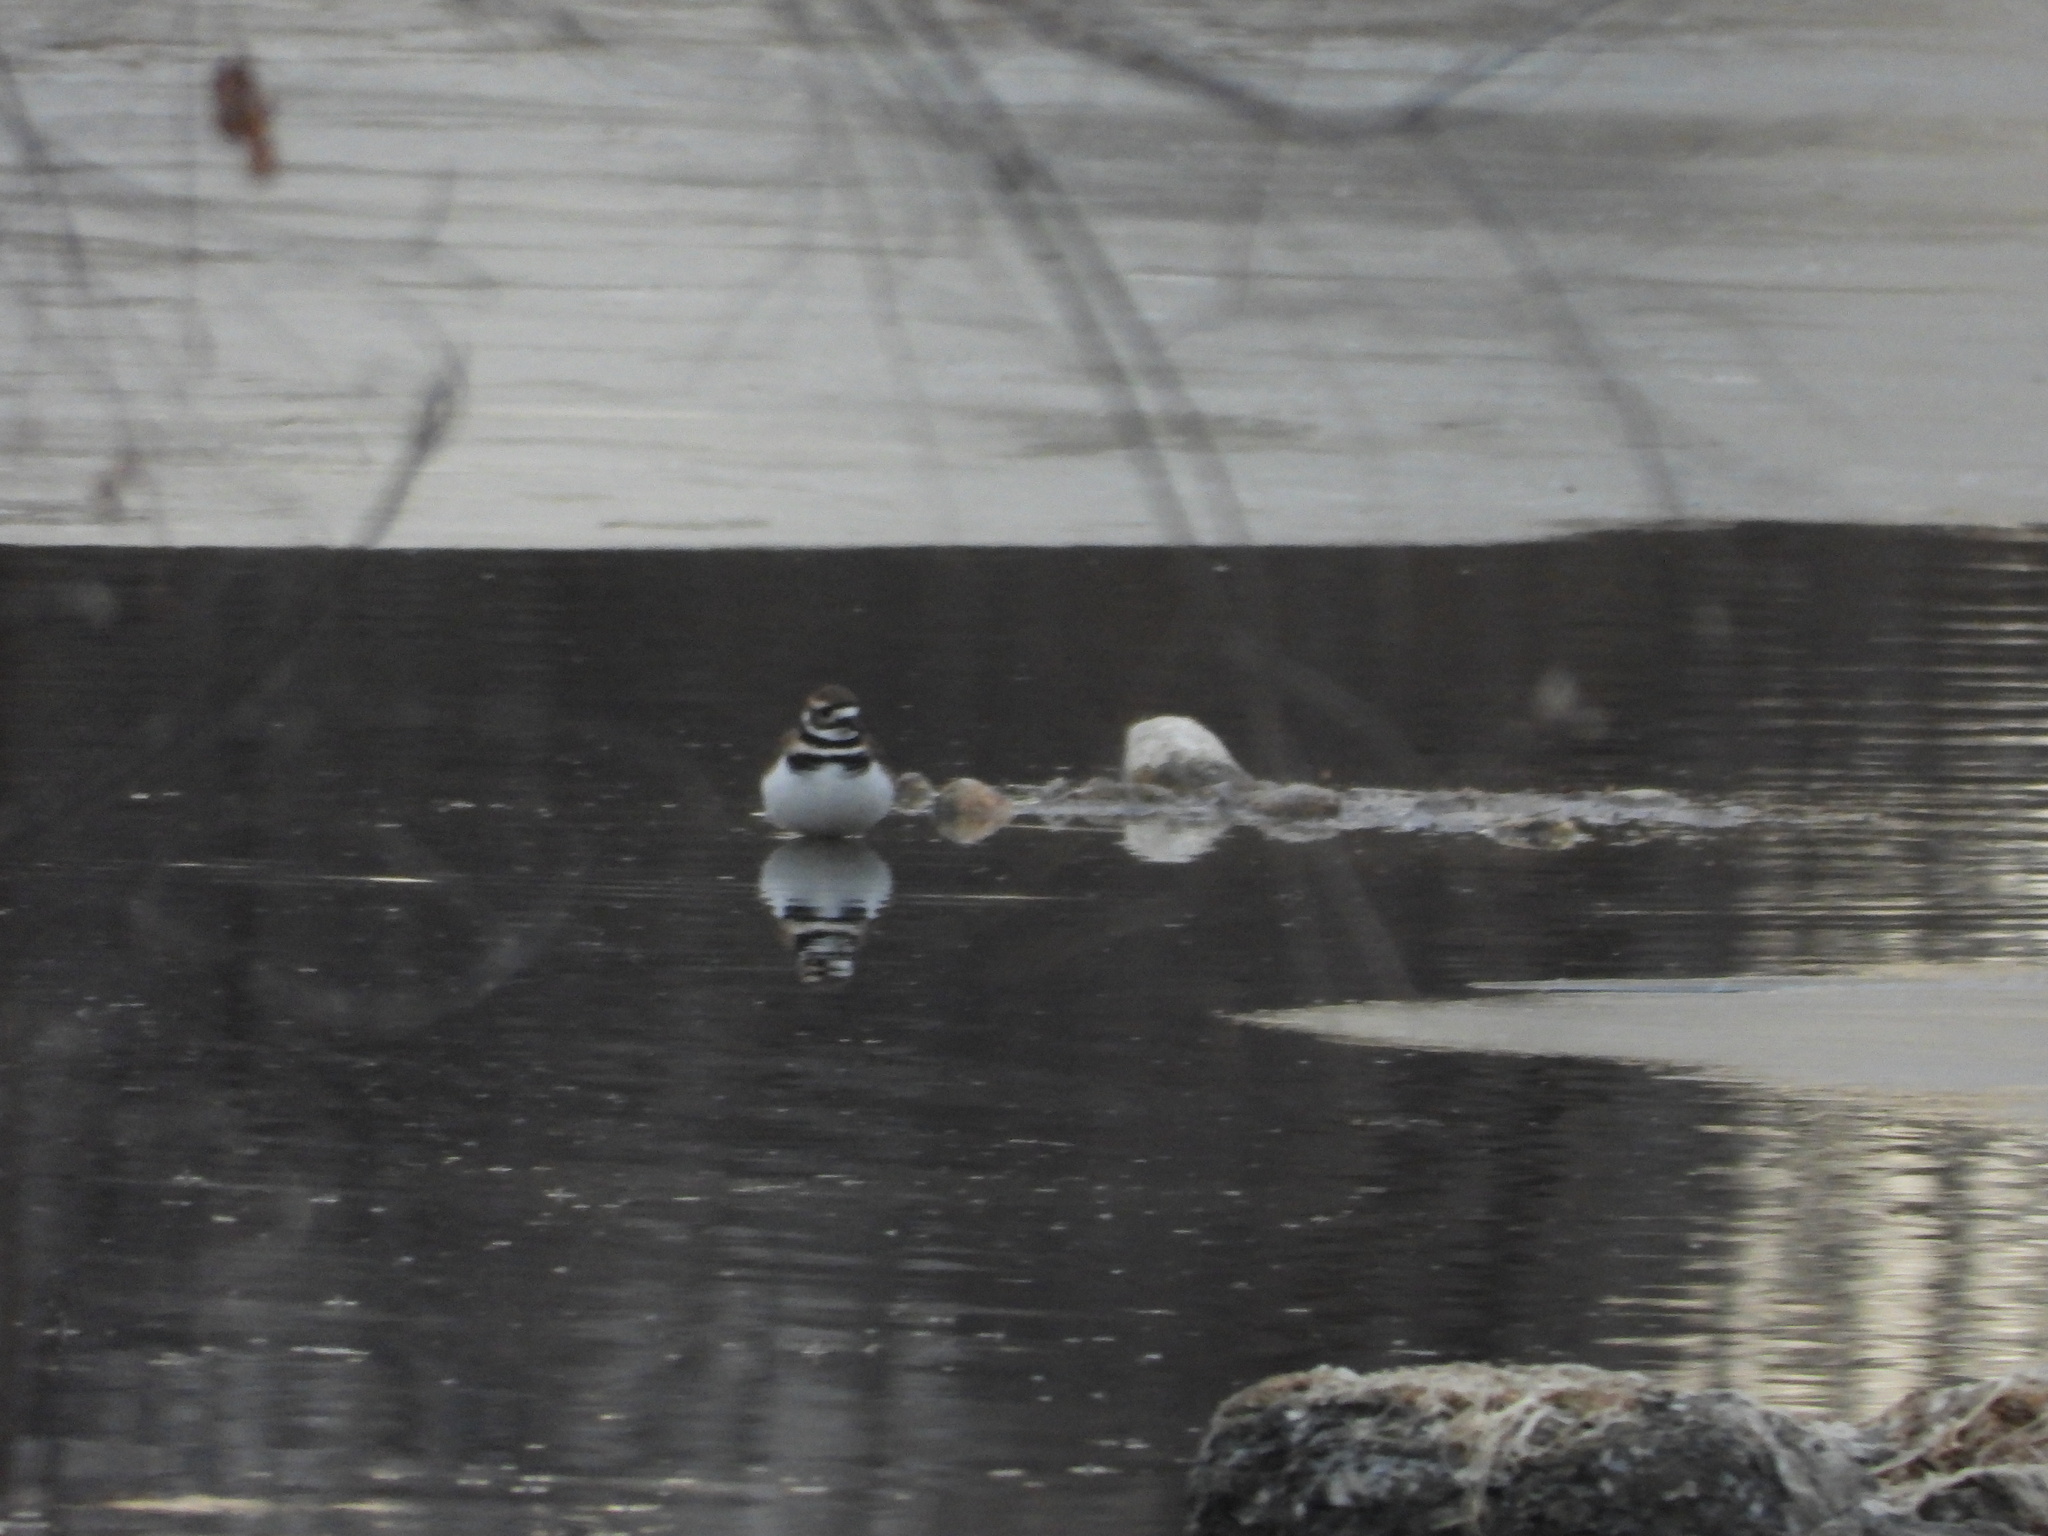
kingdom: Animalia
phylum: Chordata
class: Aves
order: Charadriiformes
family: Charadriidae
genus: Charadrius
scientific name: Charadrius vociferus
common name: Killdeer
